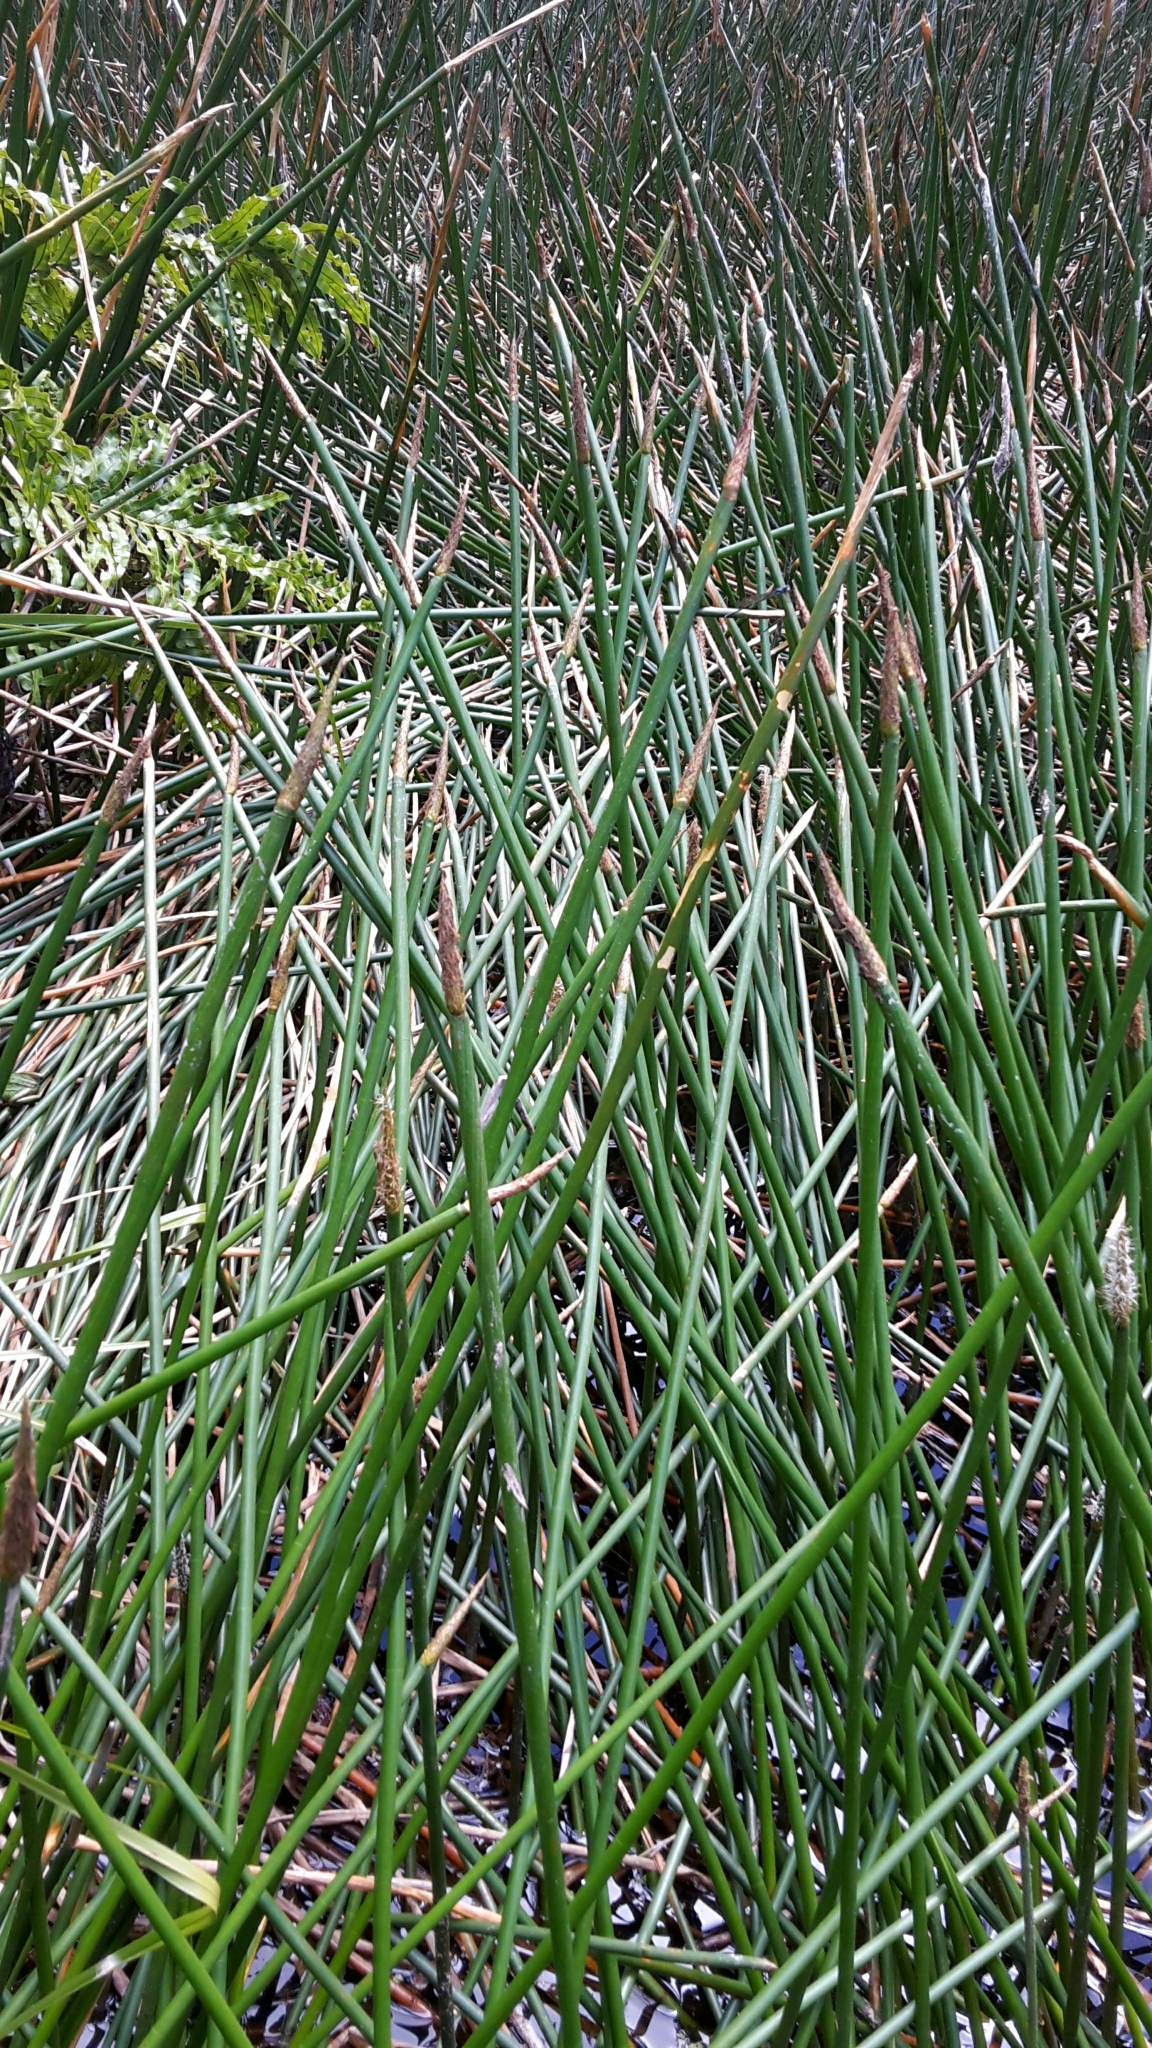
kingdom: Plantae
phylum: Tracheophyta
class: Liliopsida
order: Poales
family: Cyperaceae
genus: Eleocharis
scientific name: Eleocharis sphacelata
